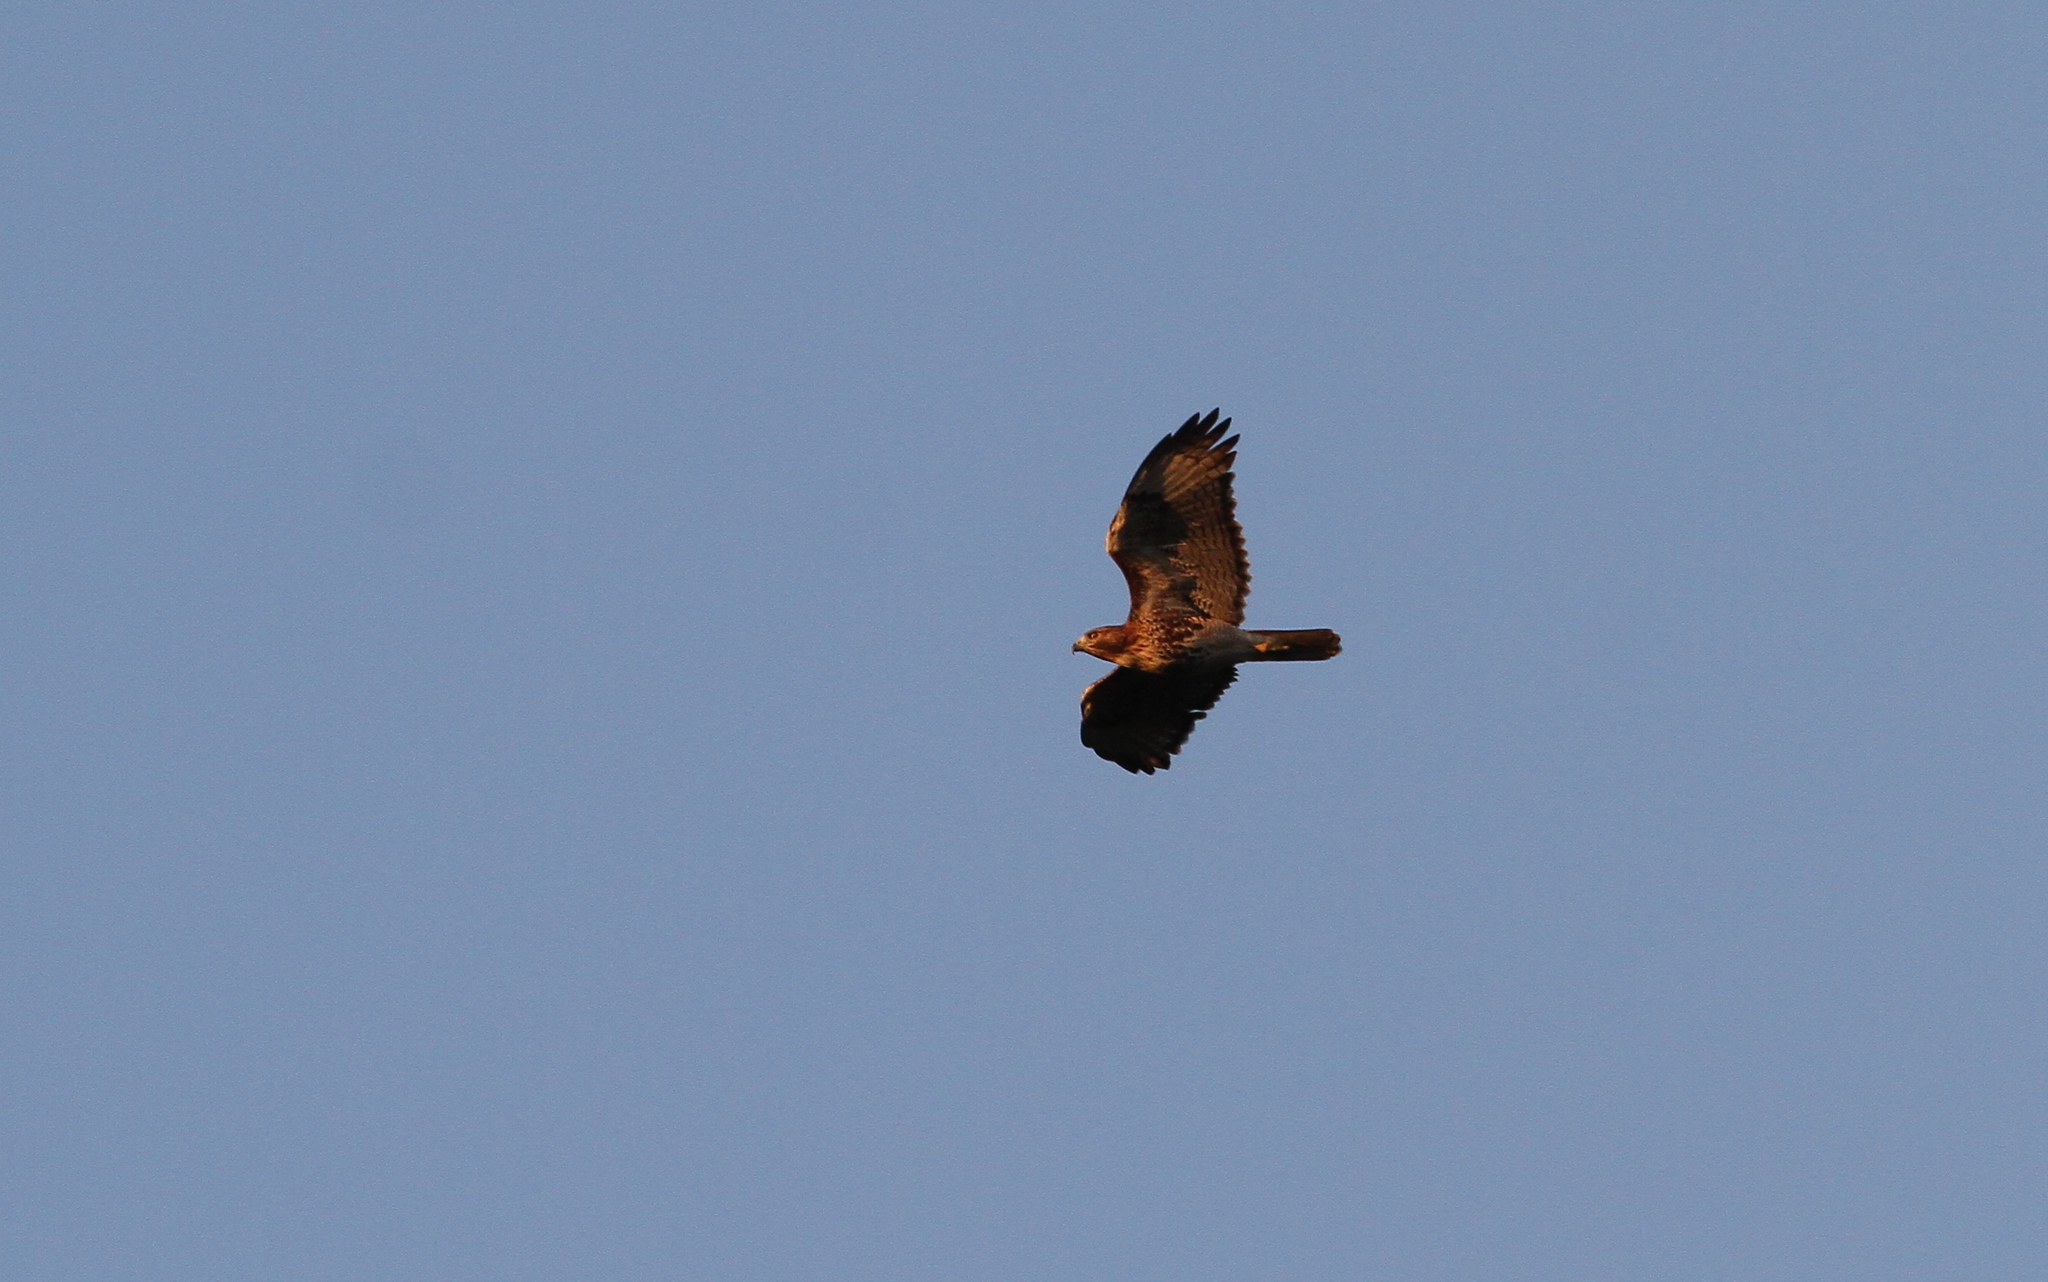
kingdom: Animalia
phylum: Chordata
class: Aves
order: Accipitriformes
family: Accipitridae
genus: Buteo
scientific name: Buteo jamaicensis
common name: Red-tailed hawk
